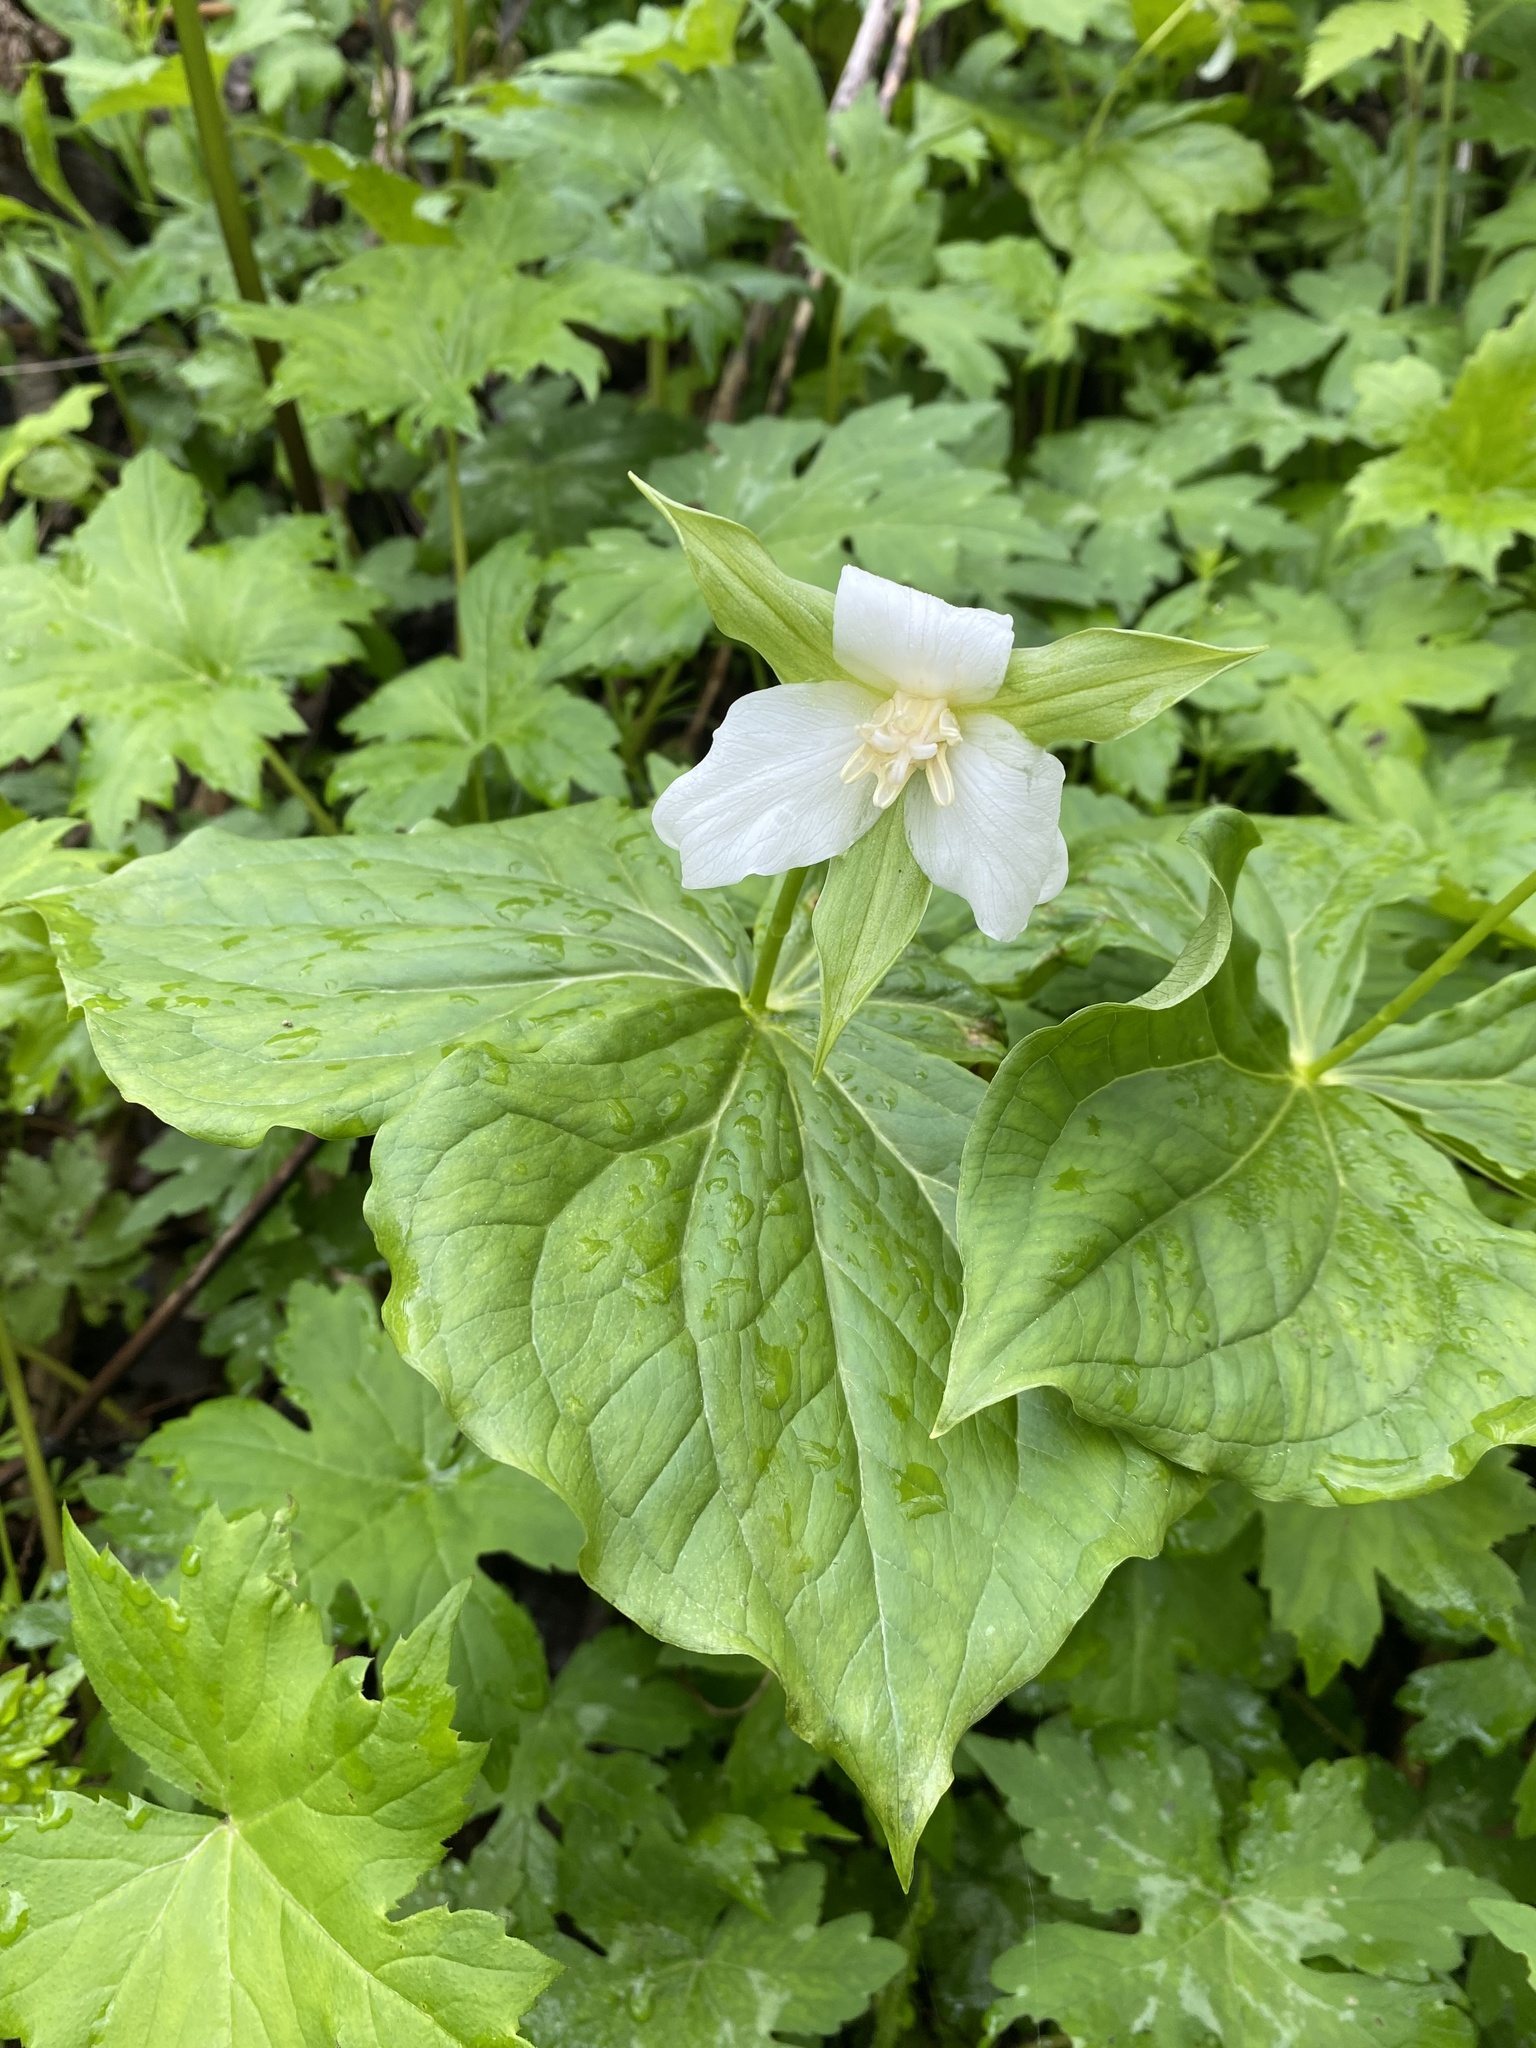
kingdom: Plantae
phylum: Tracheophyta
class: Liliopsida
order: Liliales
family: Melanthiaceae
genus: Trillium
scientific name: Trillium flexipes
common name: Drooping trillium
